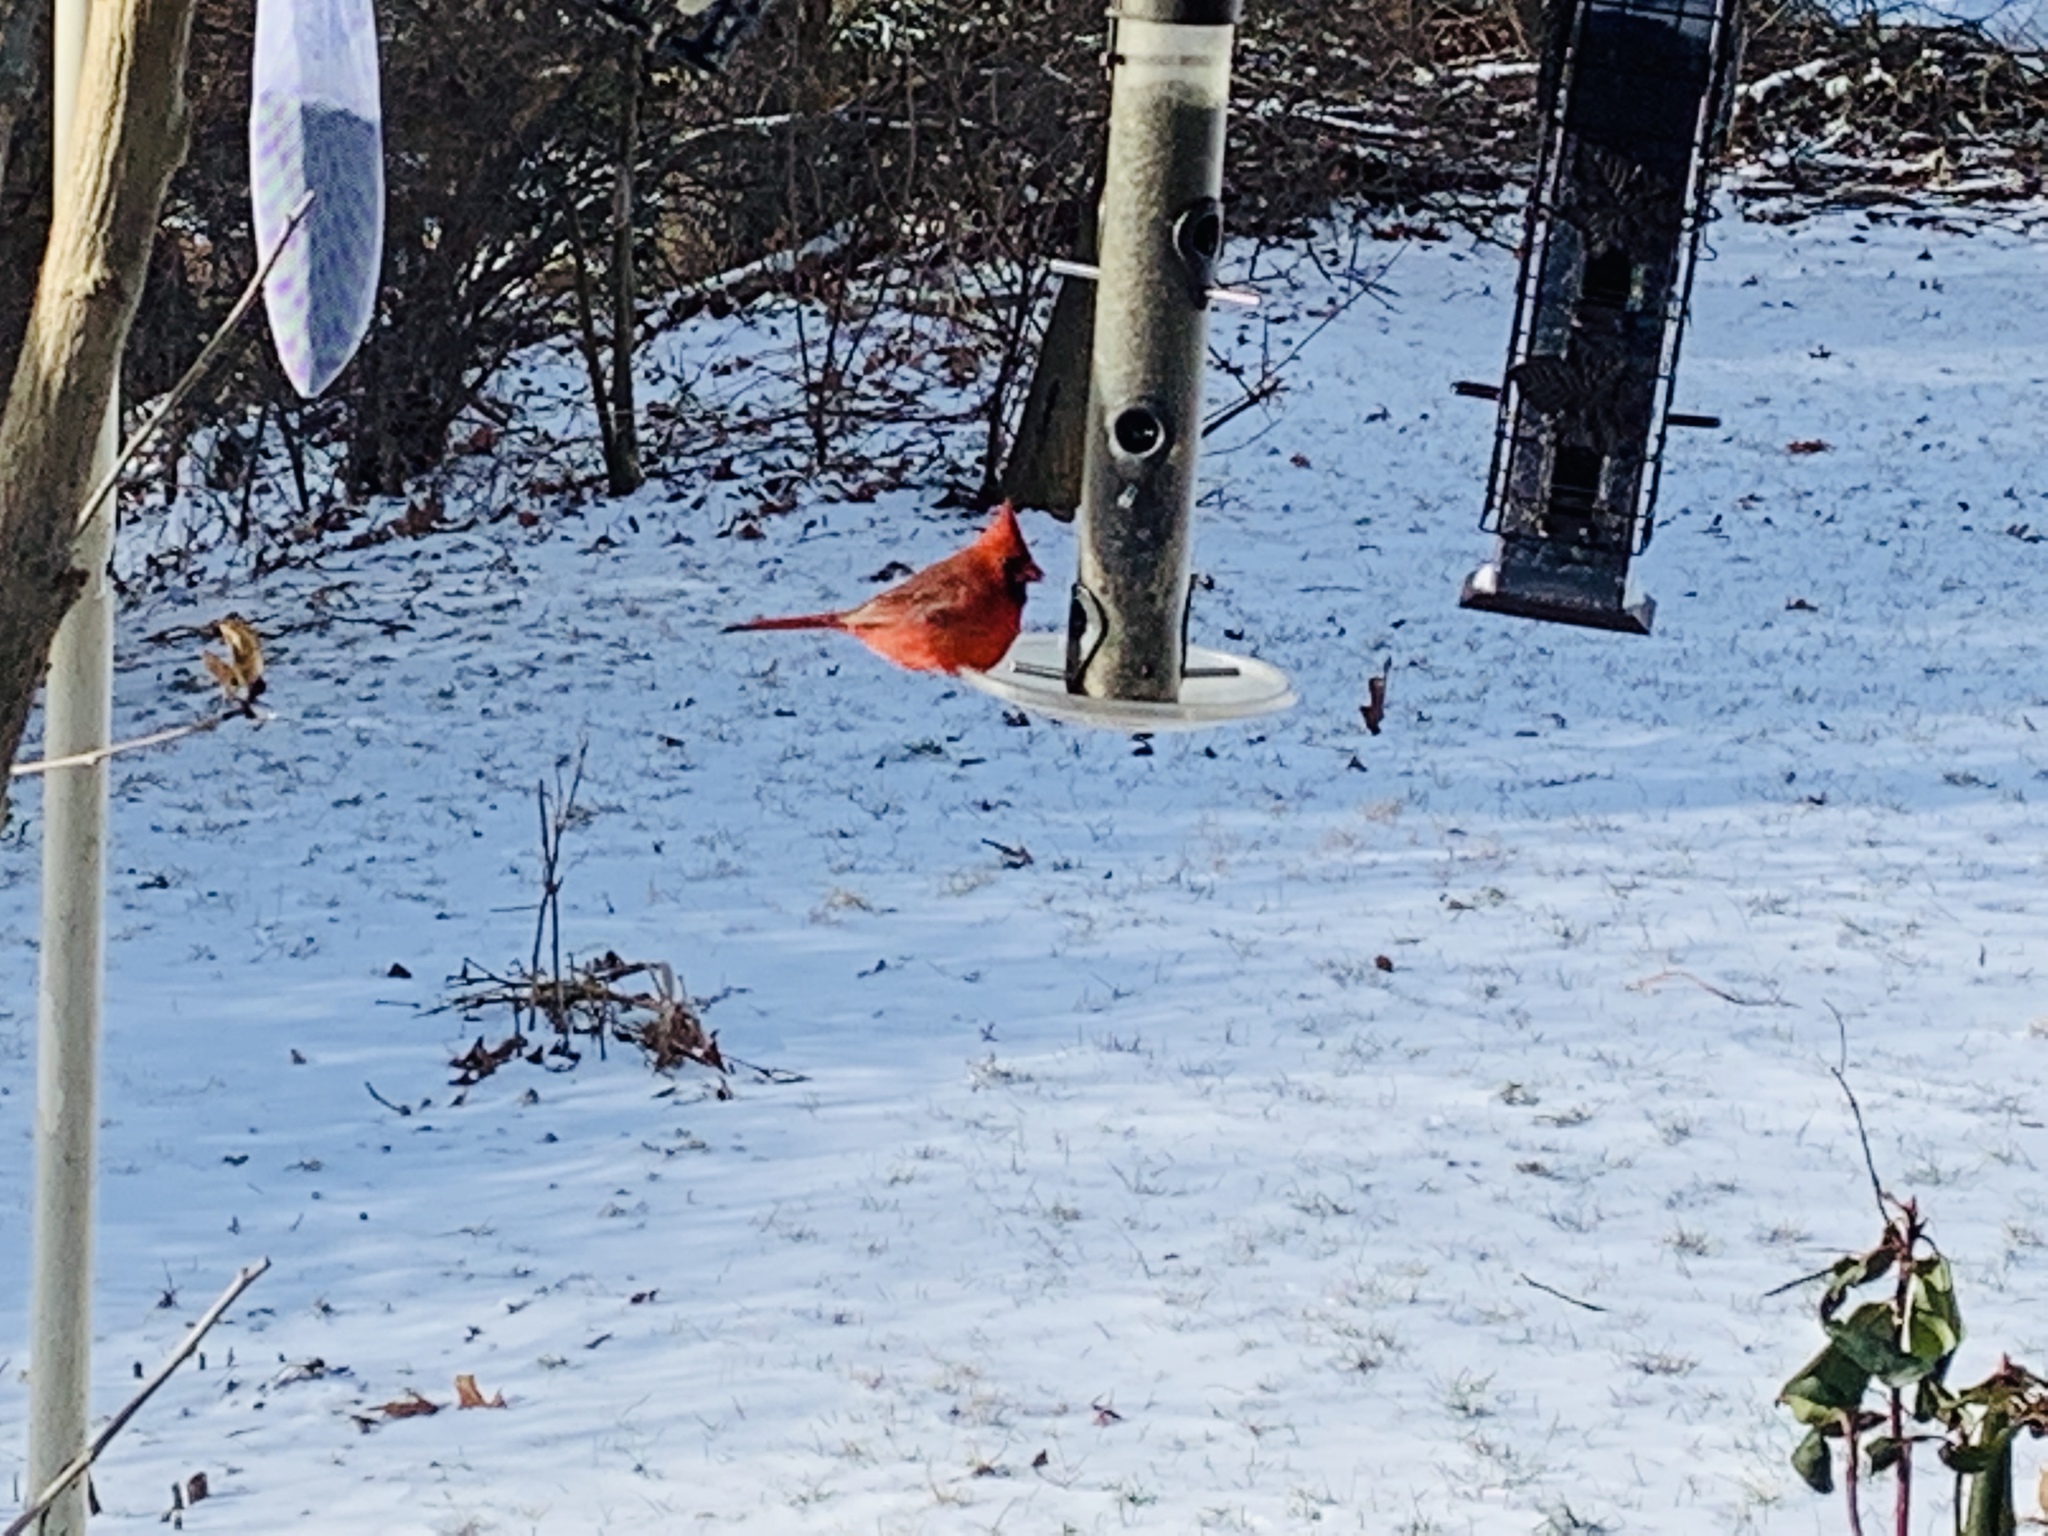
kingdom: Animalia
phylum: Chordata
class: Aves
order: Passeriformes
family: Cardinalidae
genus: Cardinalis
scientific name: Cardinalis cardinalis
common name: Northern cardinal
